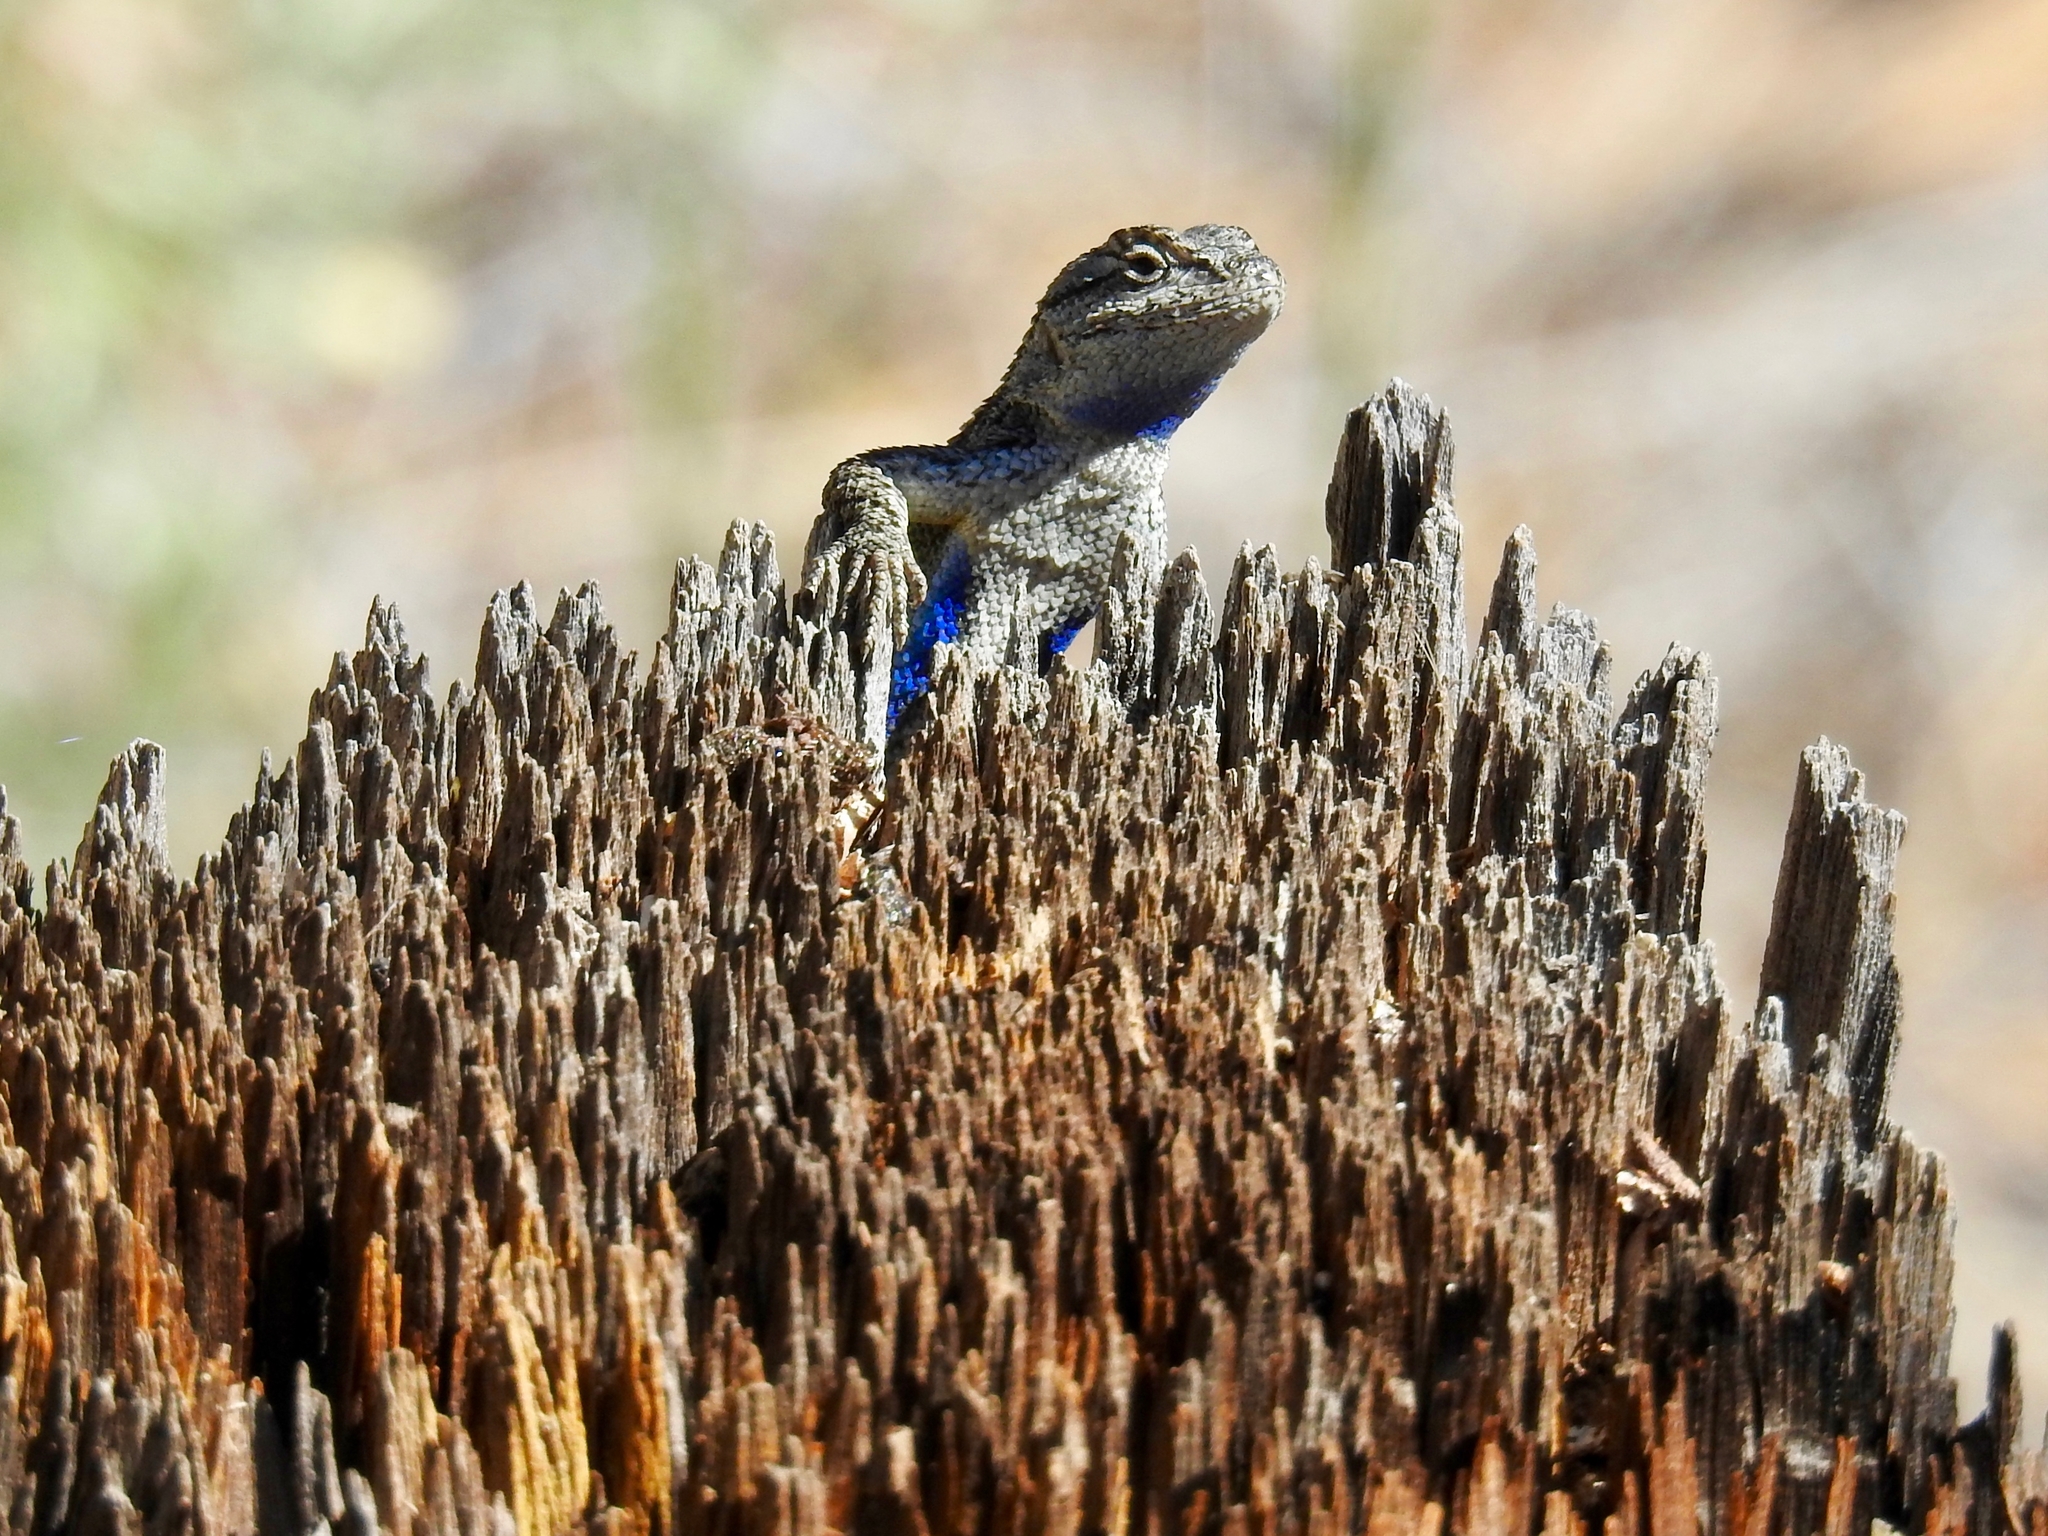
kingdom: Animalia
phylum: Chordata
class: Squamata
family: Phrynosomatidae
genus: Sceloporus
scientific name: Sceloporus occidentalis
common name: Western fence lizard
